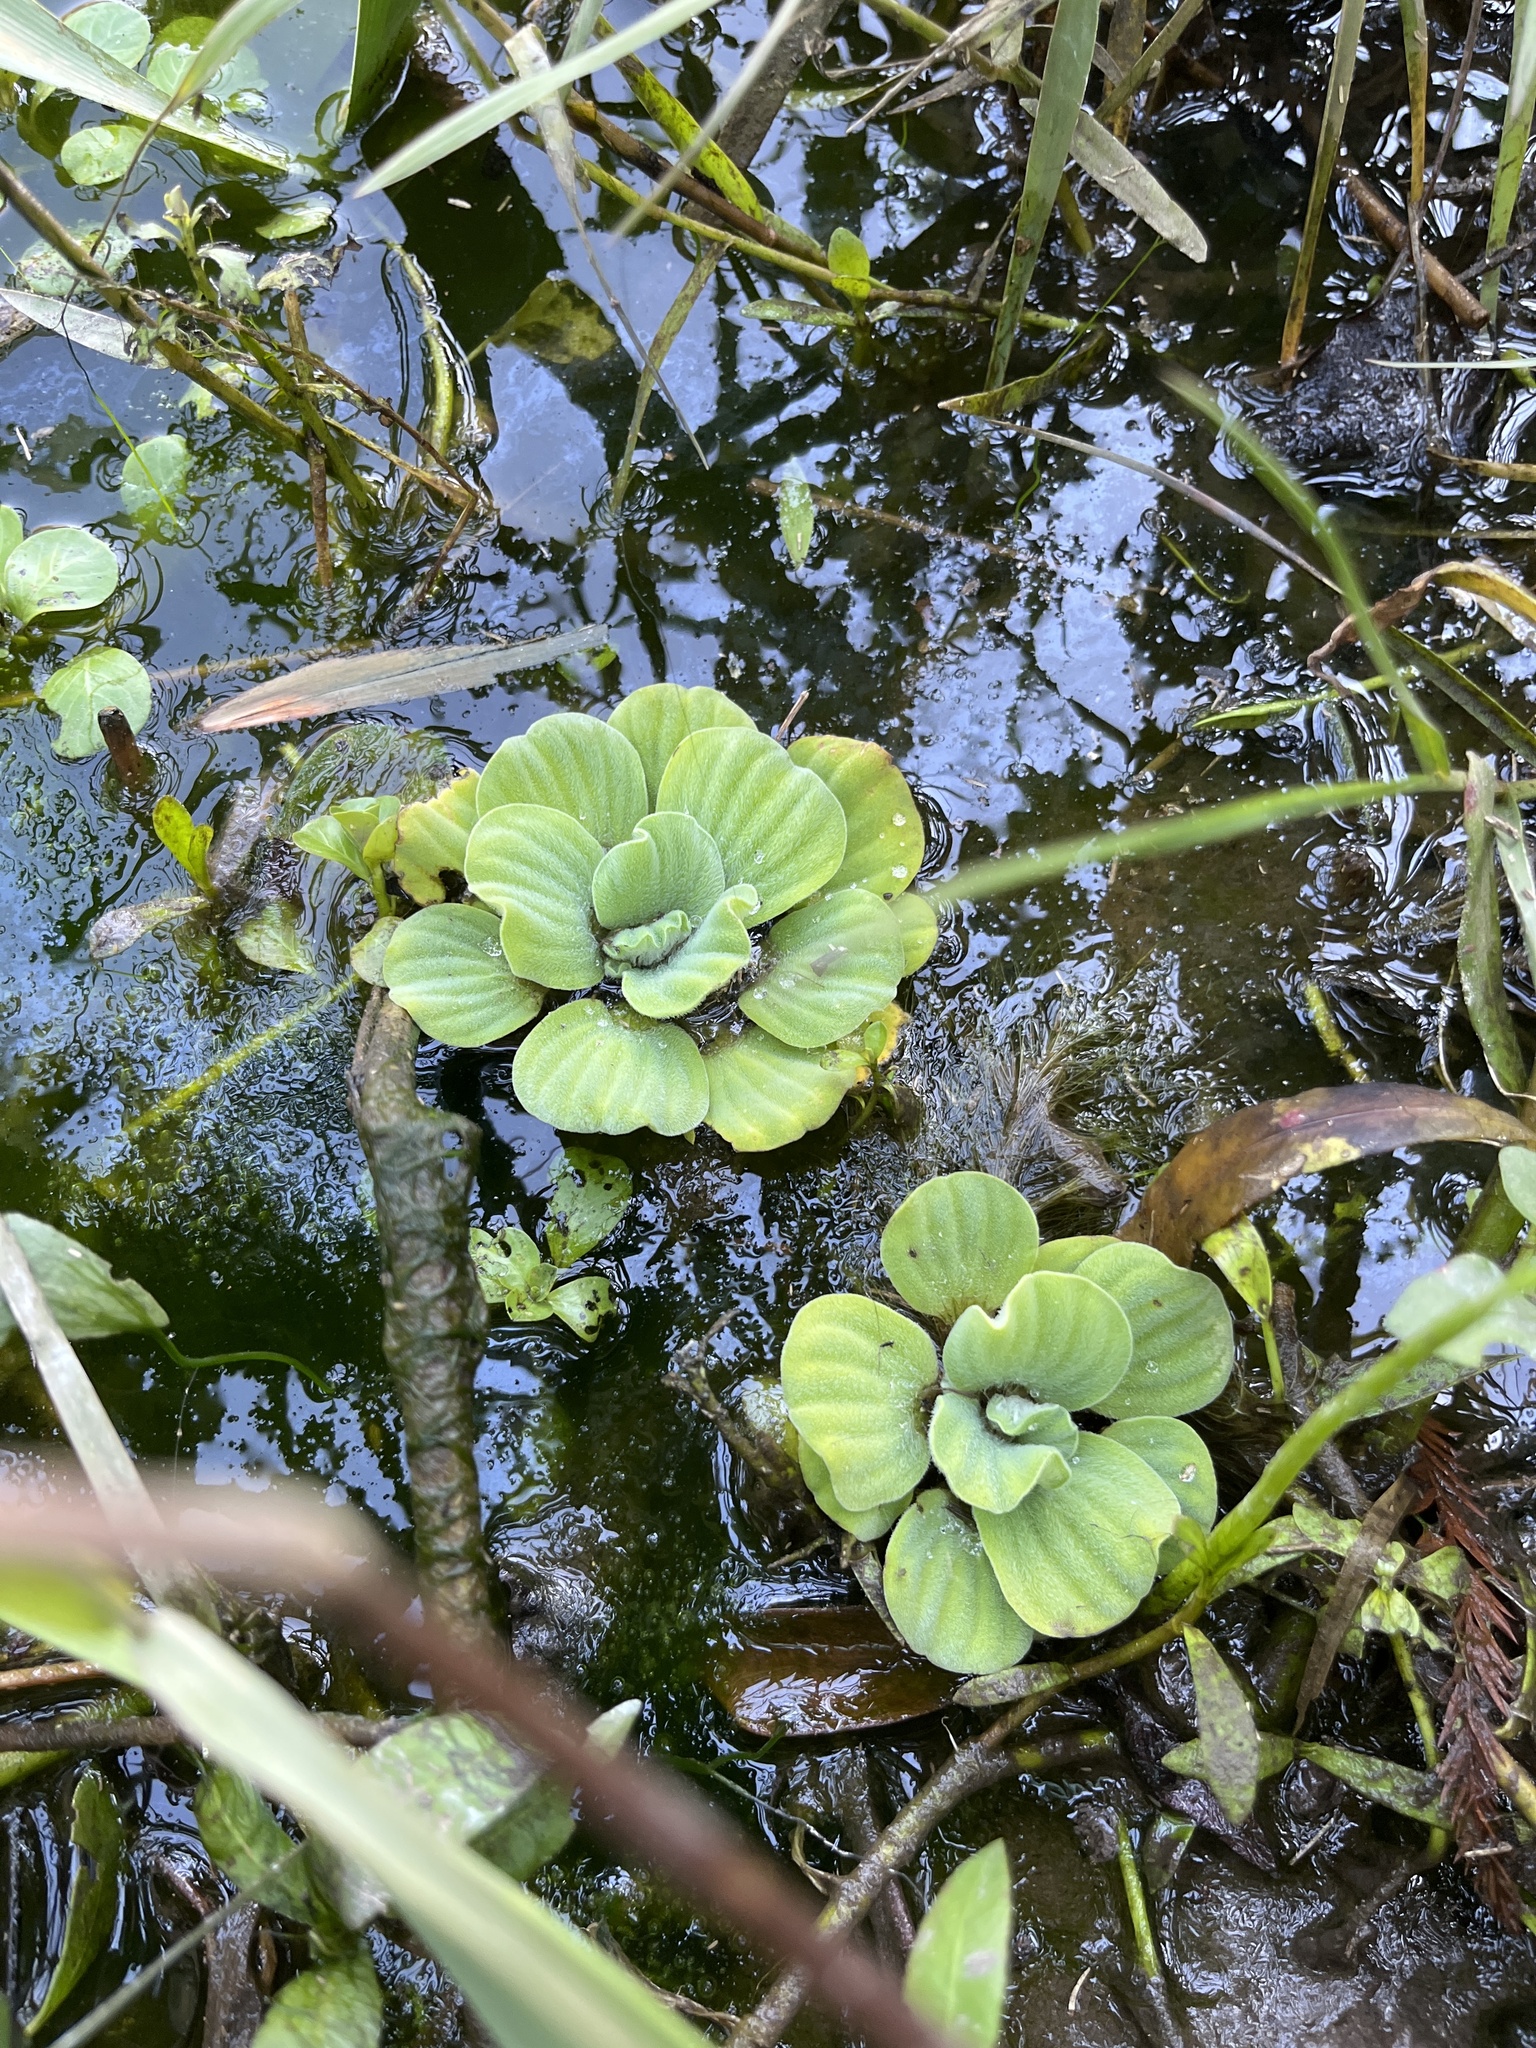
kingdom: Plantae
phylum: Tracheophyta
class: Liliopsida
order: Alismatales
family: Araceae
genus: Pistia
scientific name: Pistia stratiotes
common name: Water lettuce
